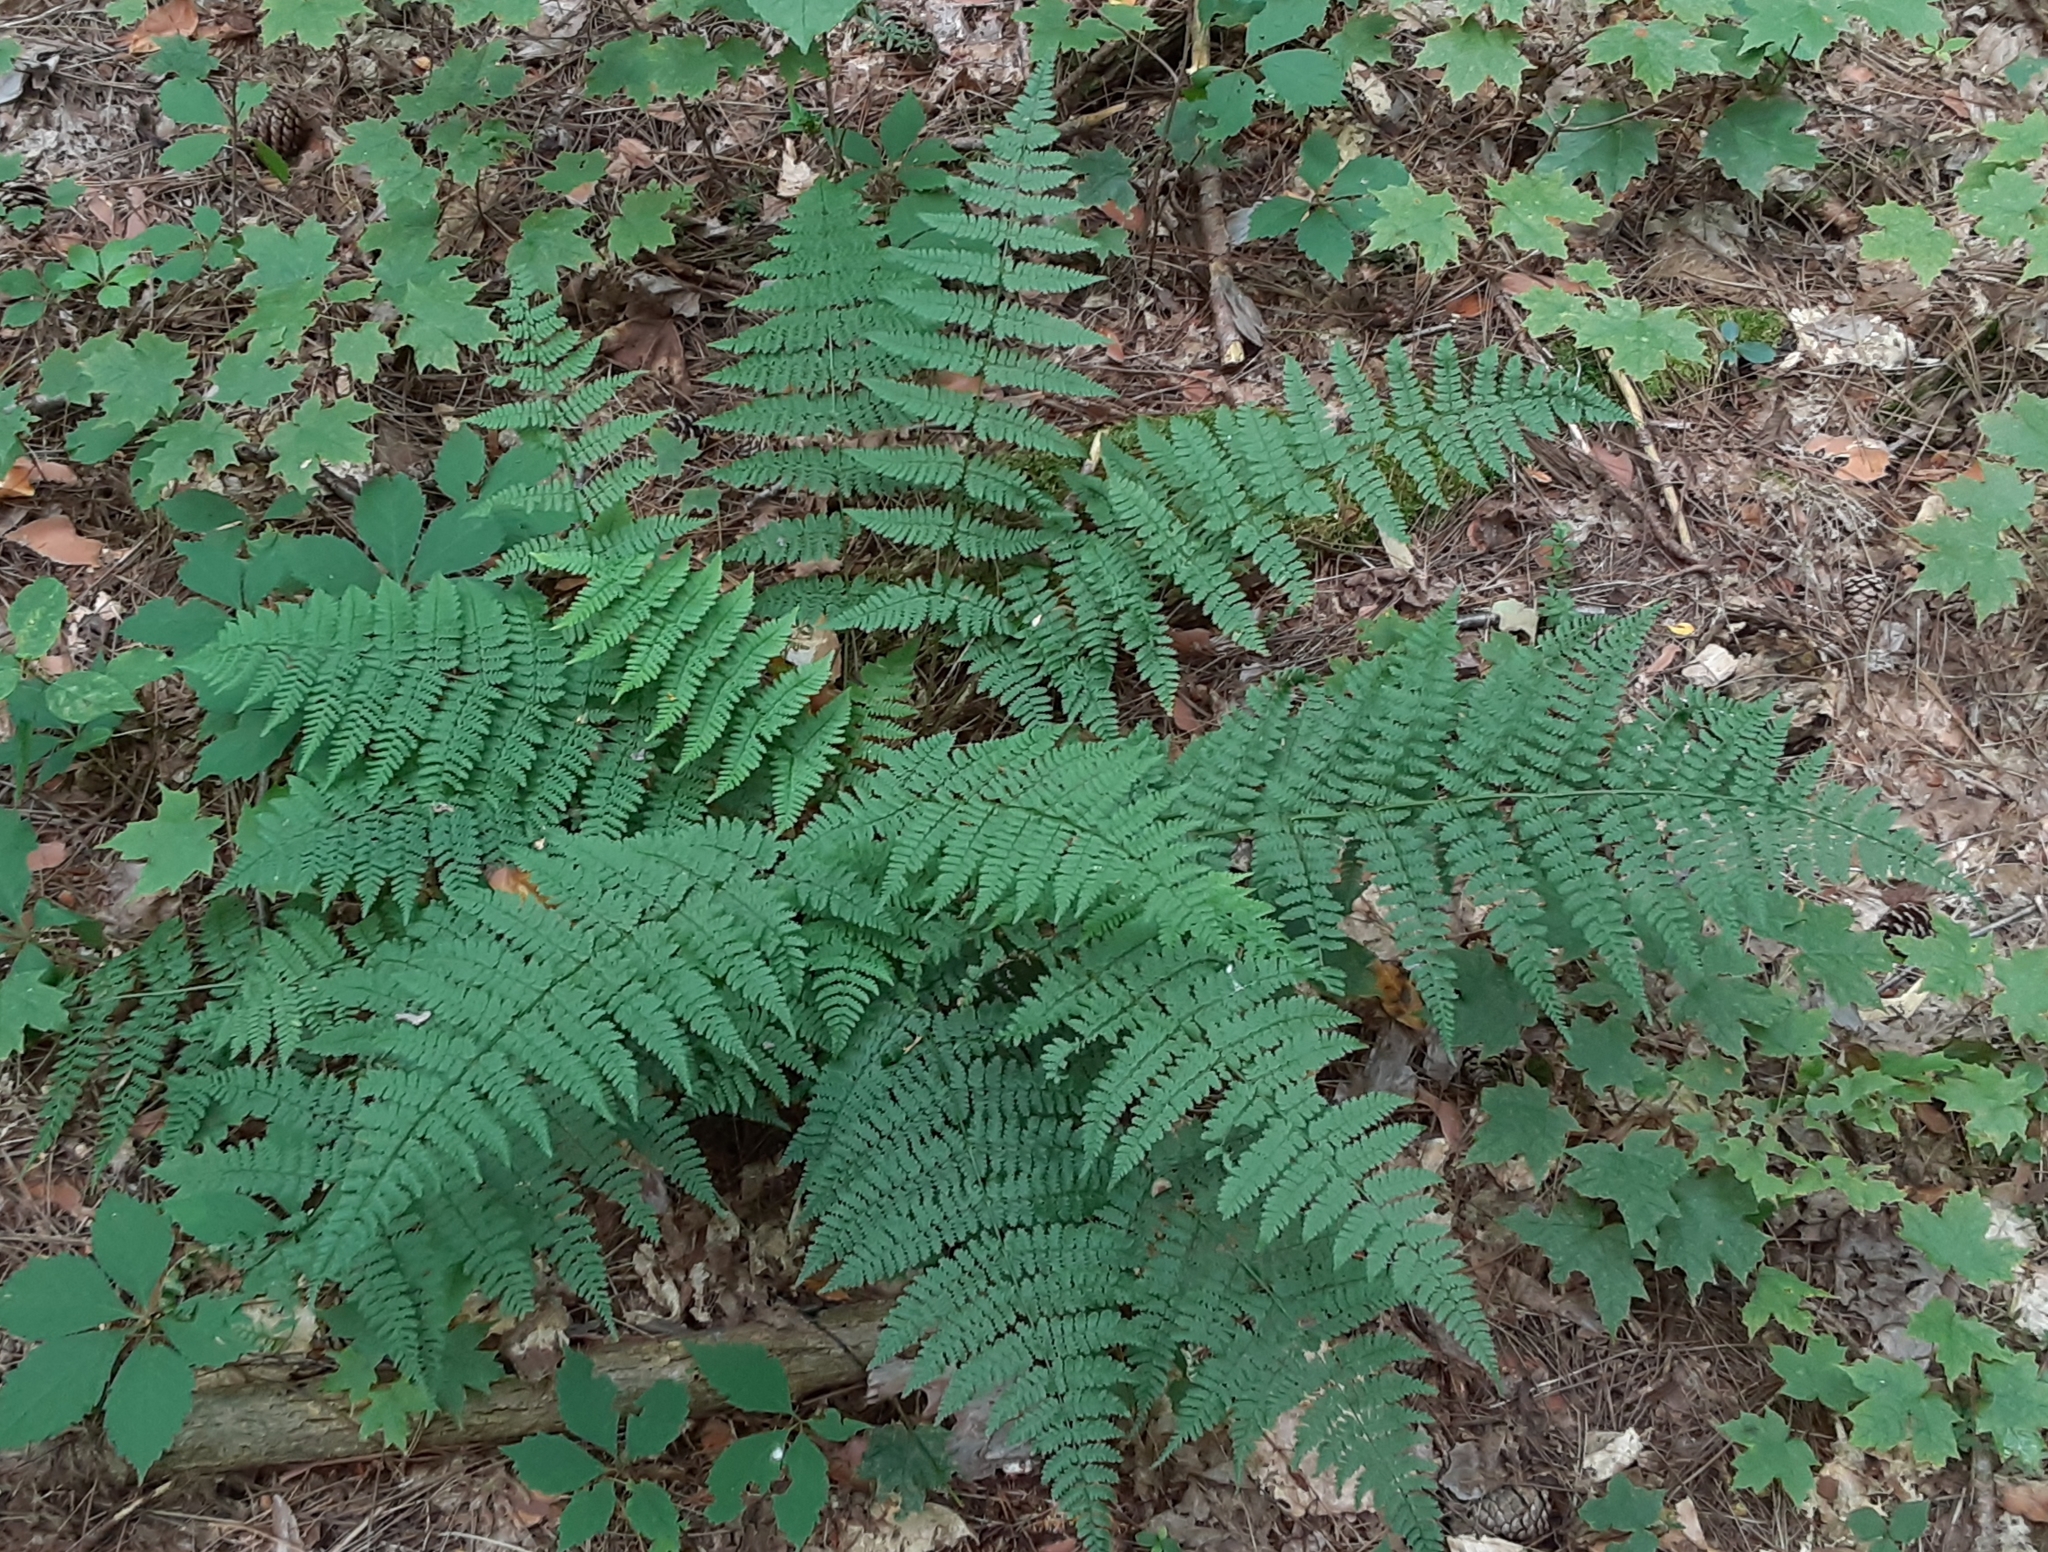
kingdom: Plantae
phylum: Tracheophyta
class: Polypodiopsida
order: Polypodiales
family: Dryopteridaceae
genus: Dryopteris
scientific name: Dryopteris intermedia
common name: Evergreen wood fern
